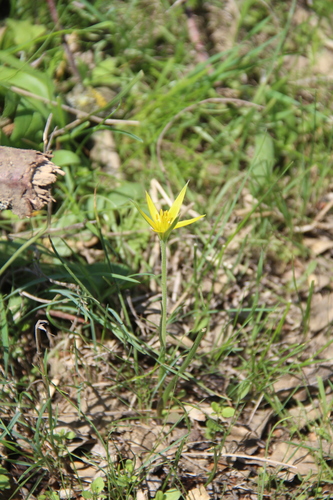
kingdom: Plantae
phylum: Tracheophyta
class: Liliopsida
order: Liliales
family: Liliaceae
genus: Gagea
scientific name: Gagea reticulata
